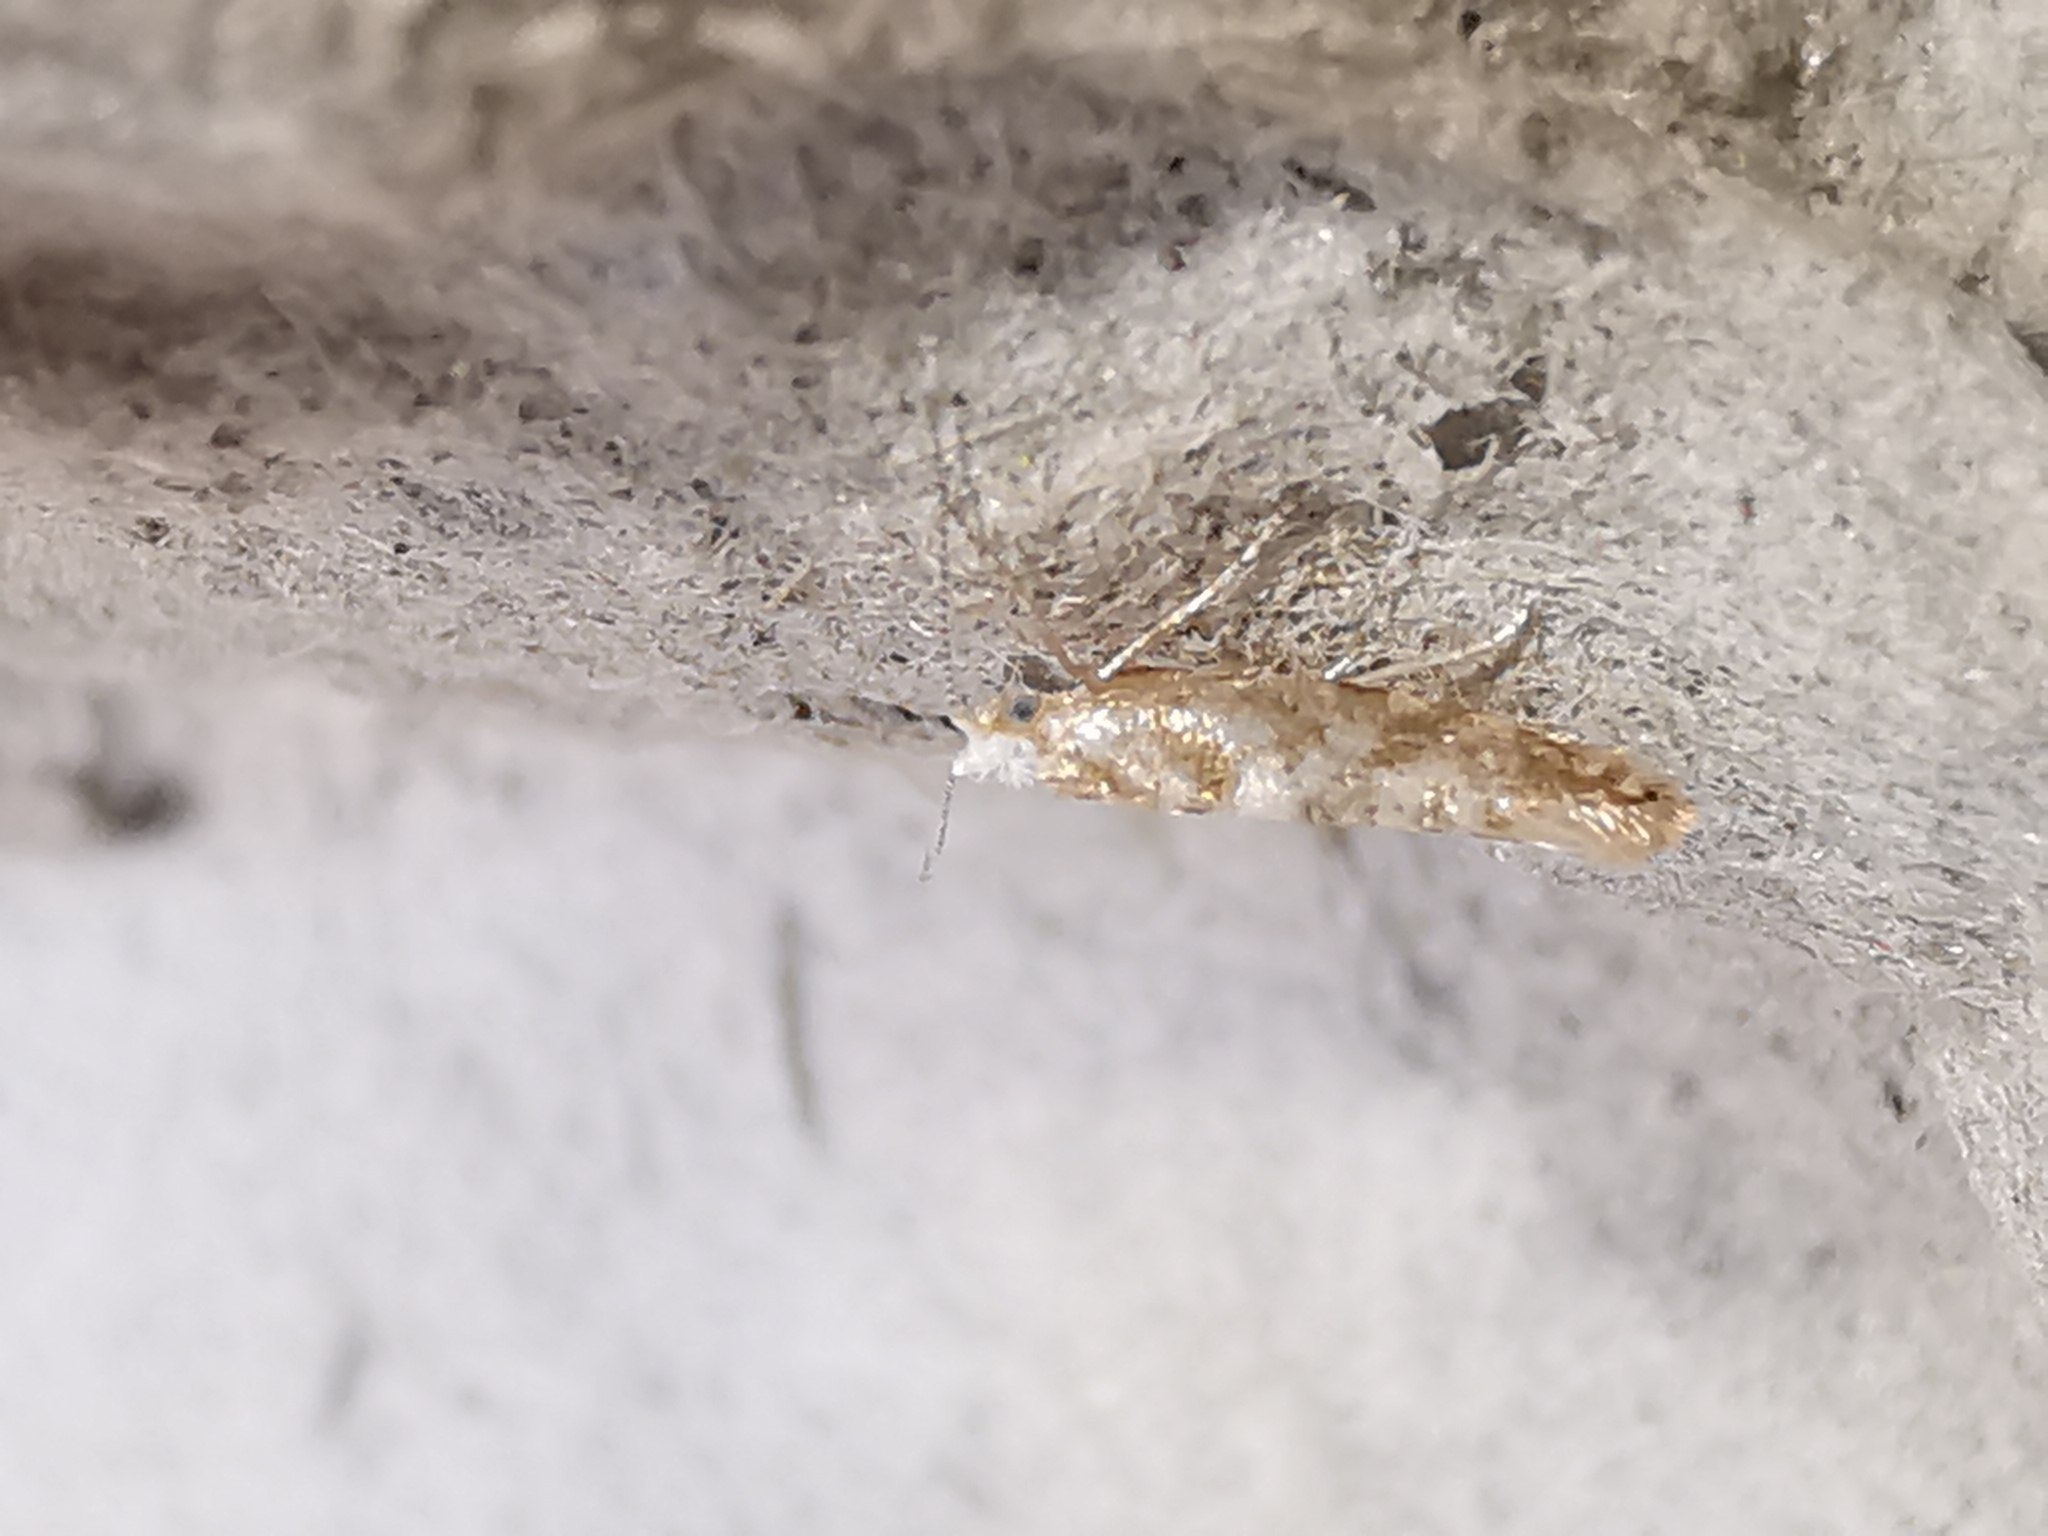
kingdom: Animalia
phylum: Arthropoda
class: Insecta
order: Lepidoptera
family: Argyresthiidae
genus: Argyresthia
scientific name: Argyresthia cupressella
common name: Cypress tip moth
